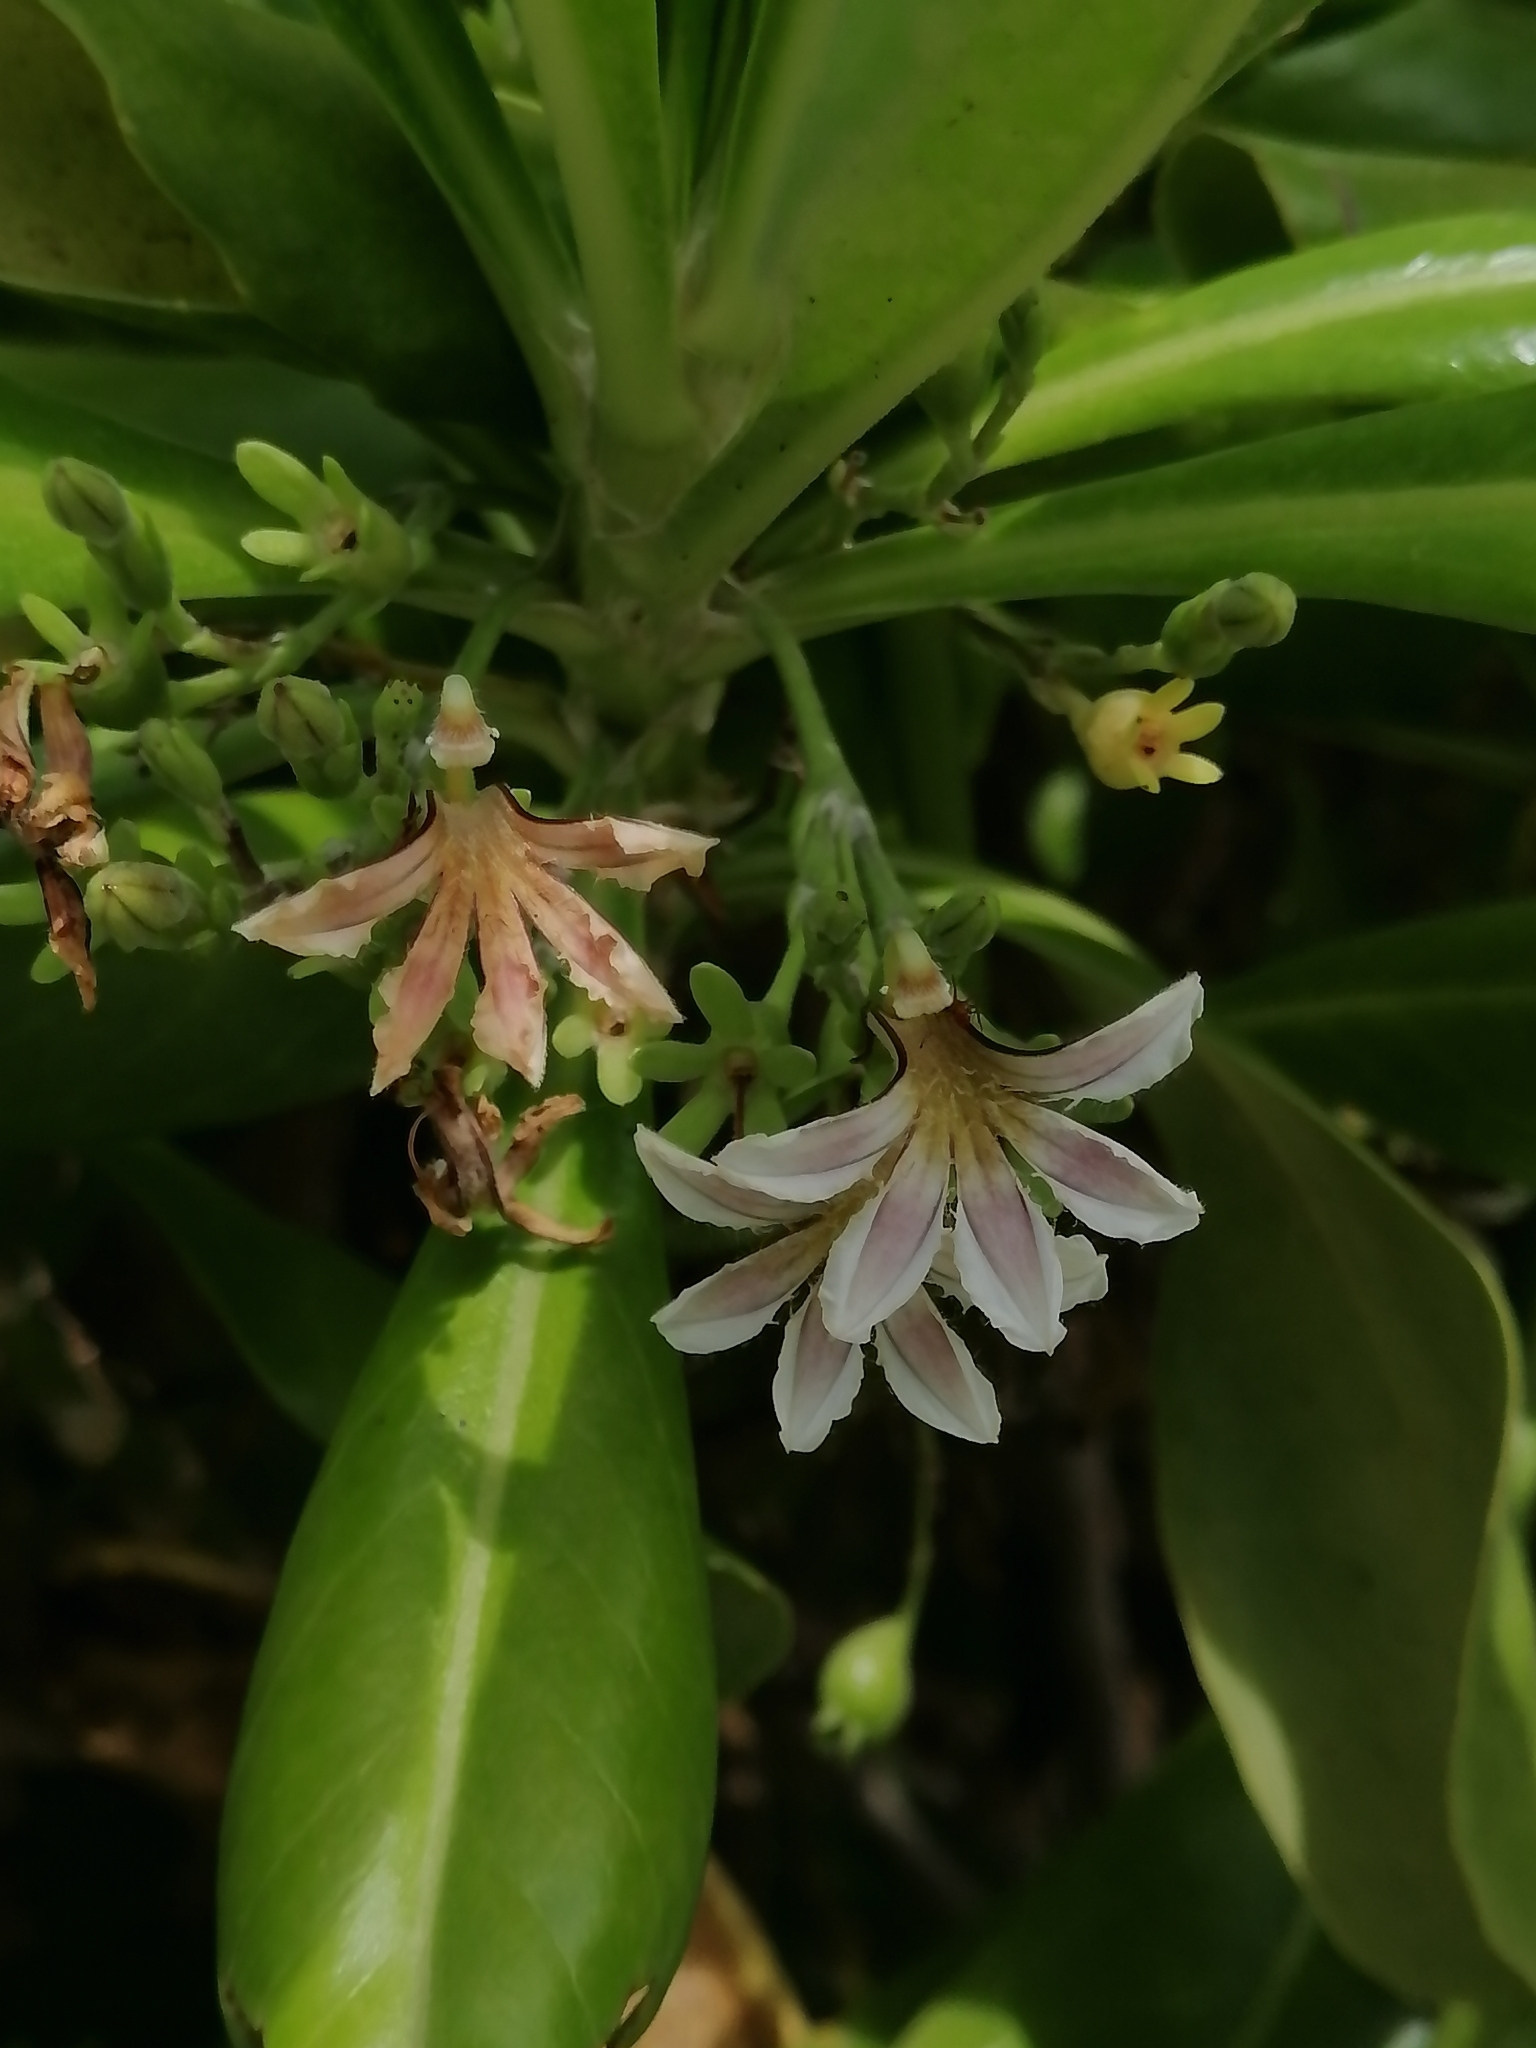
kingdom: Plantae
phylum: Tracheophyta
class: Magnoliopsida
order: Asterales
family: Goodeniaceae
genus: Scaevola
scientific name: Scaevola taccada
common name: Sea lettucetree
